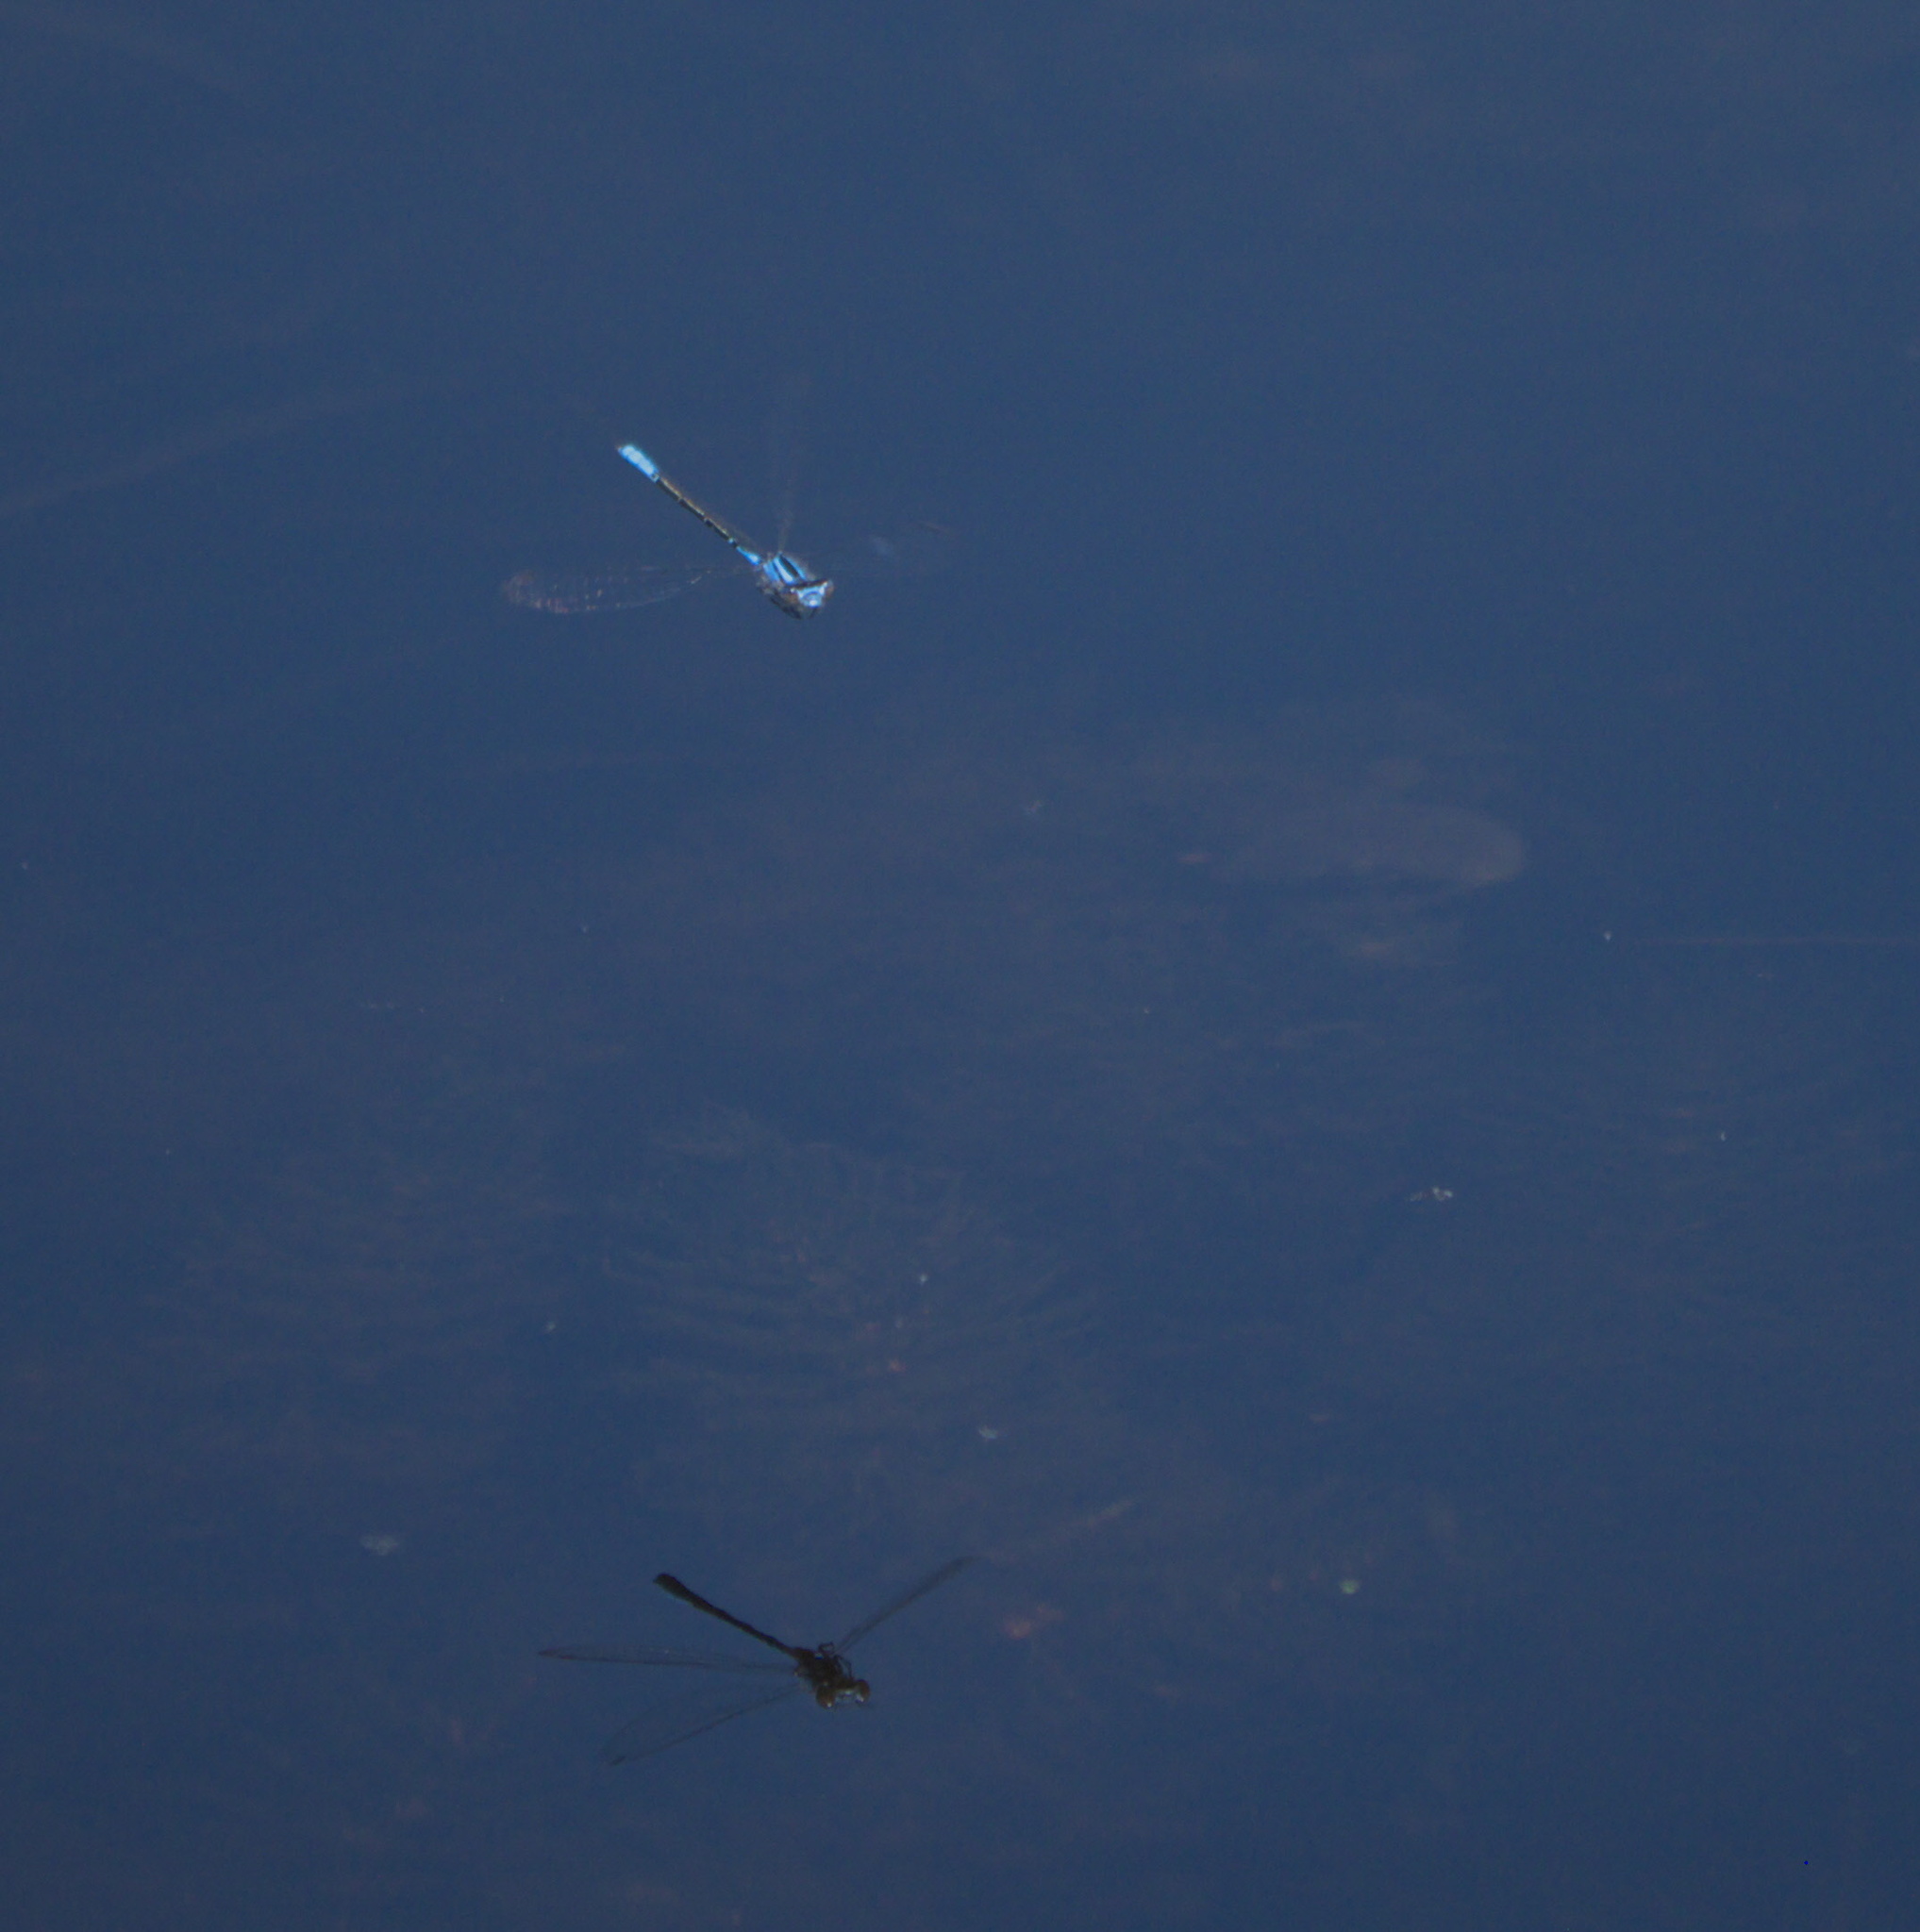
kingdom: Animalia
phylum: Arthropoda
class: Insecta
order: Odonata
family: Coenagrionidae
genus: Enallagma
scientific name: Enallagma aspersum
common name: Azure bluet
